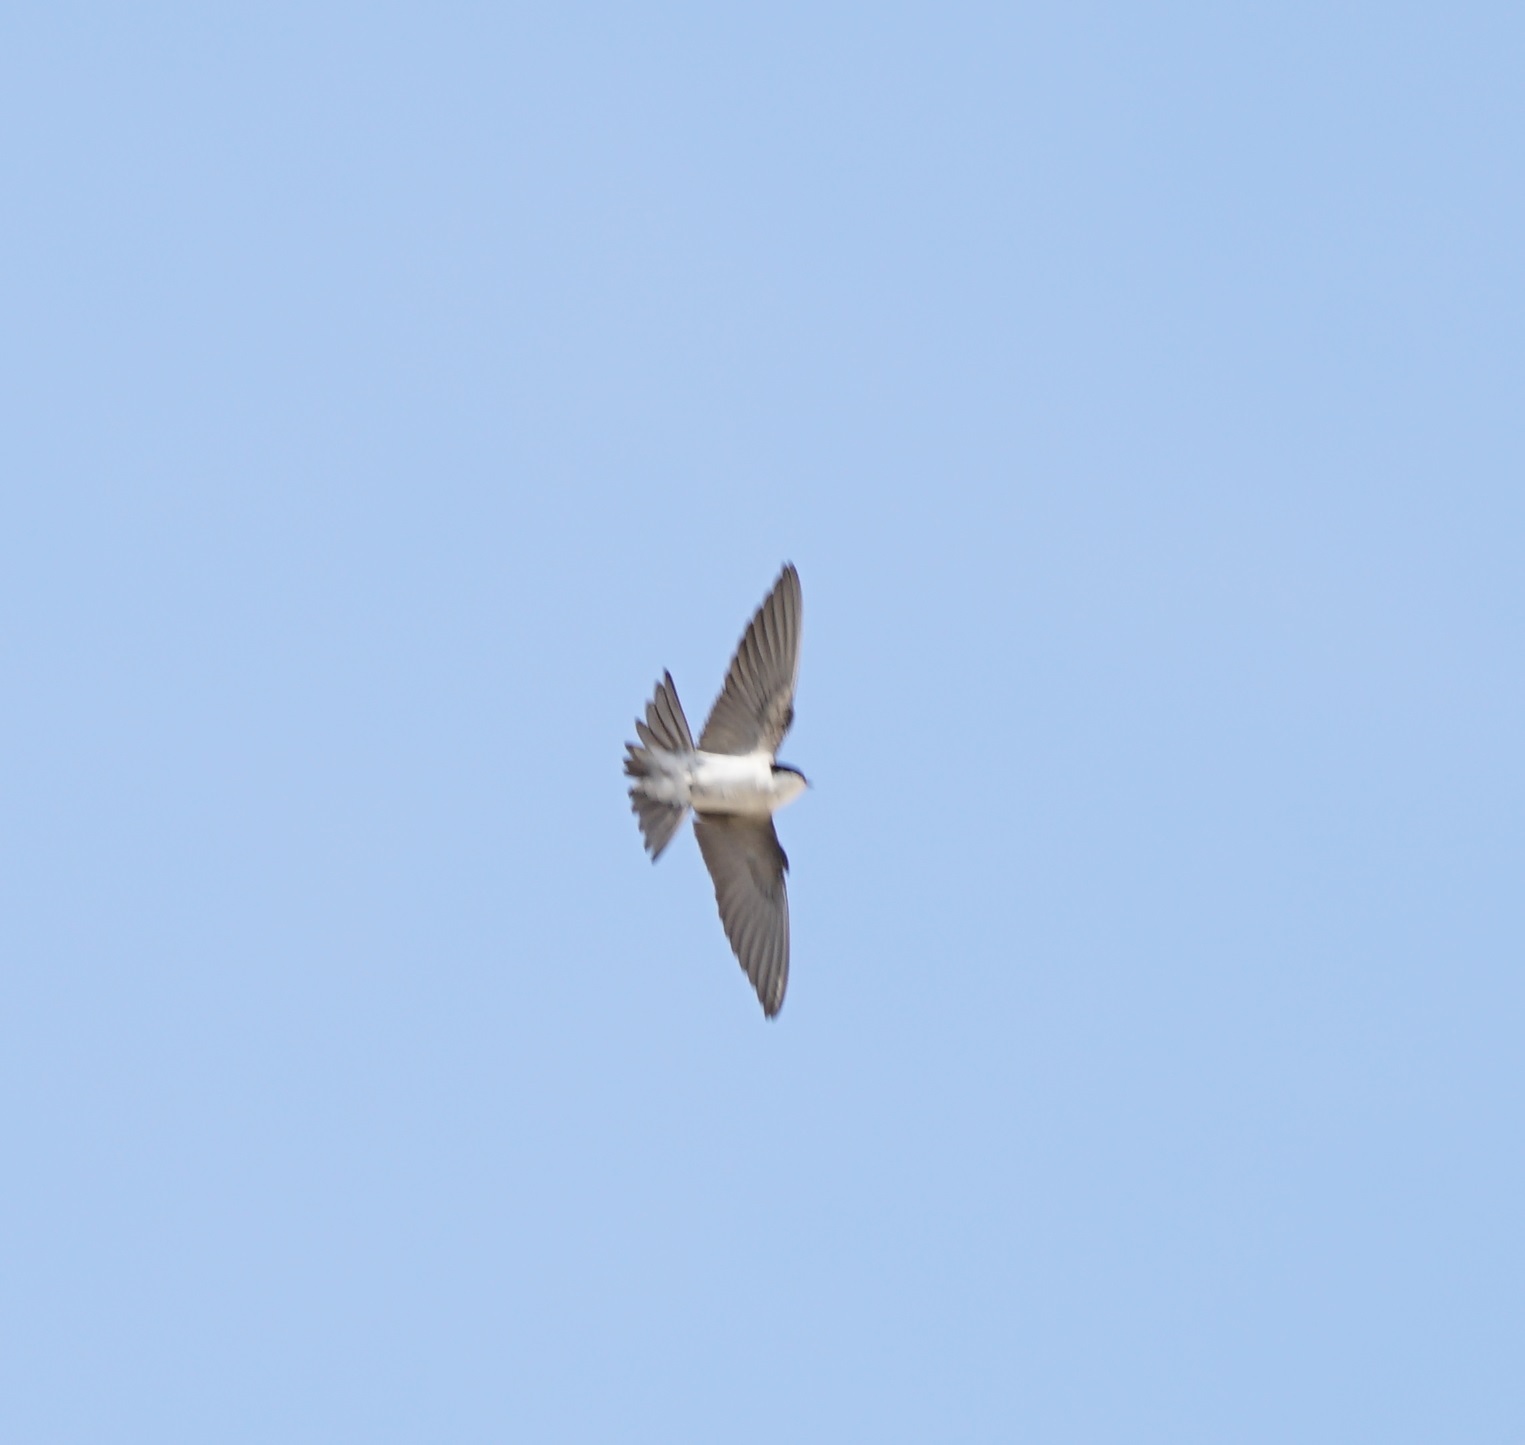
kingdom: Animalia
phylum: Chordata
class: Aves
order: Passeriformes
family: Hirundinidae
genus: Delichon
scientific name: Delichon urbicum
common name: Common house martin
